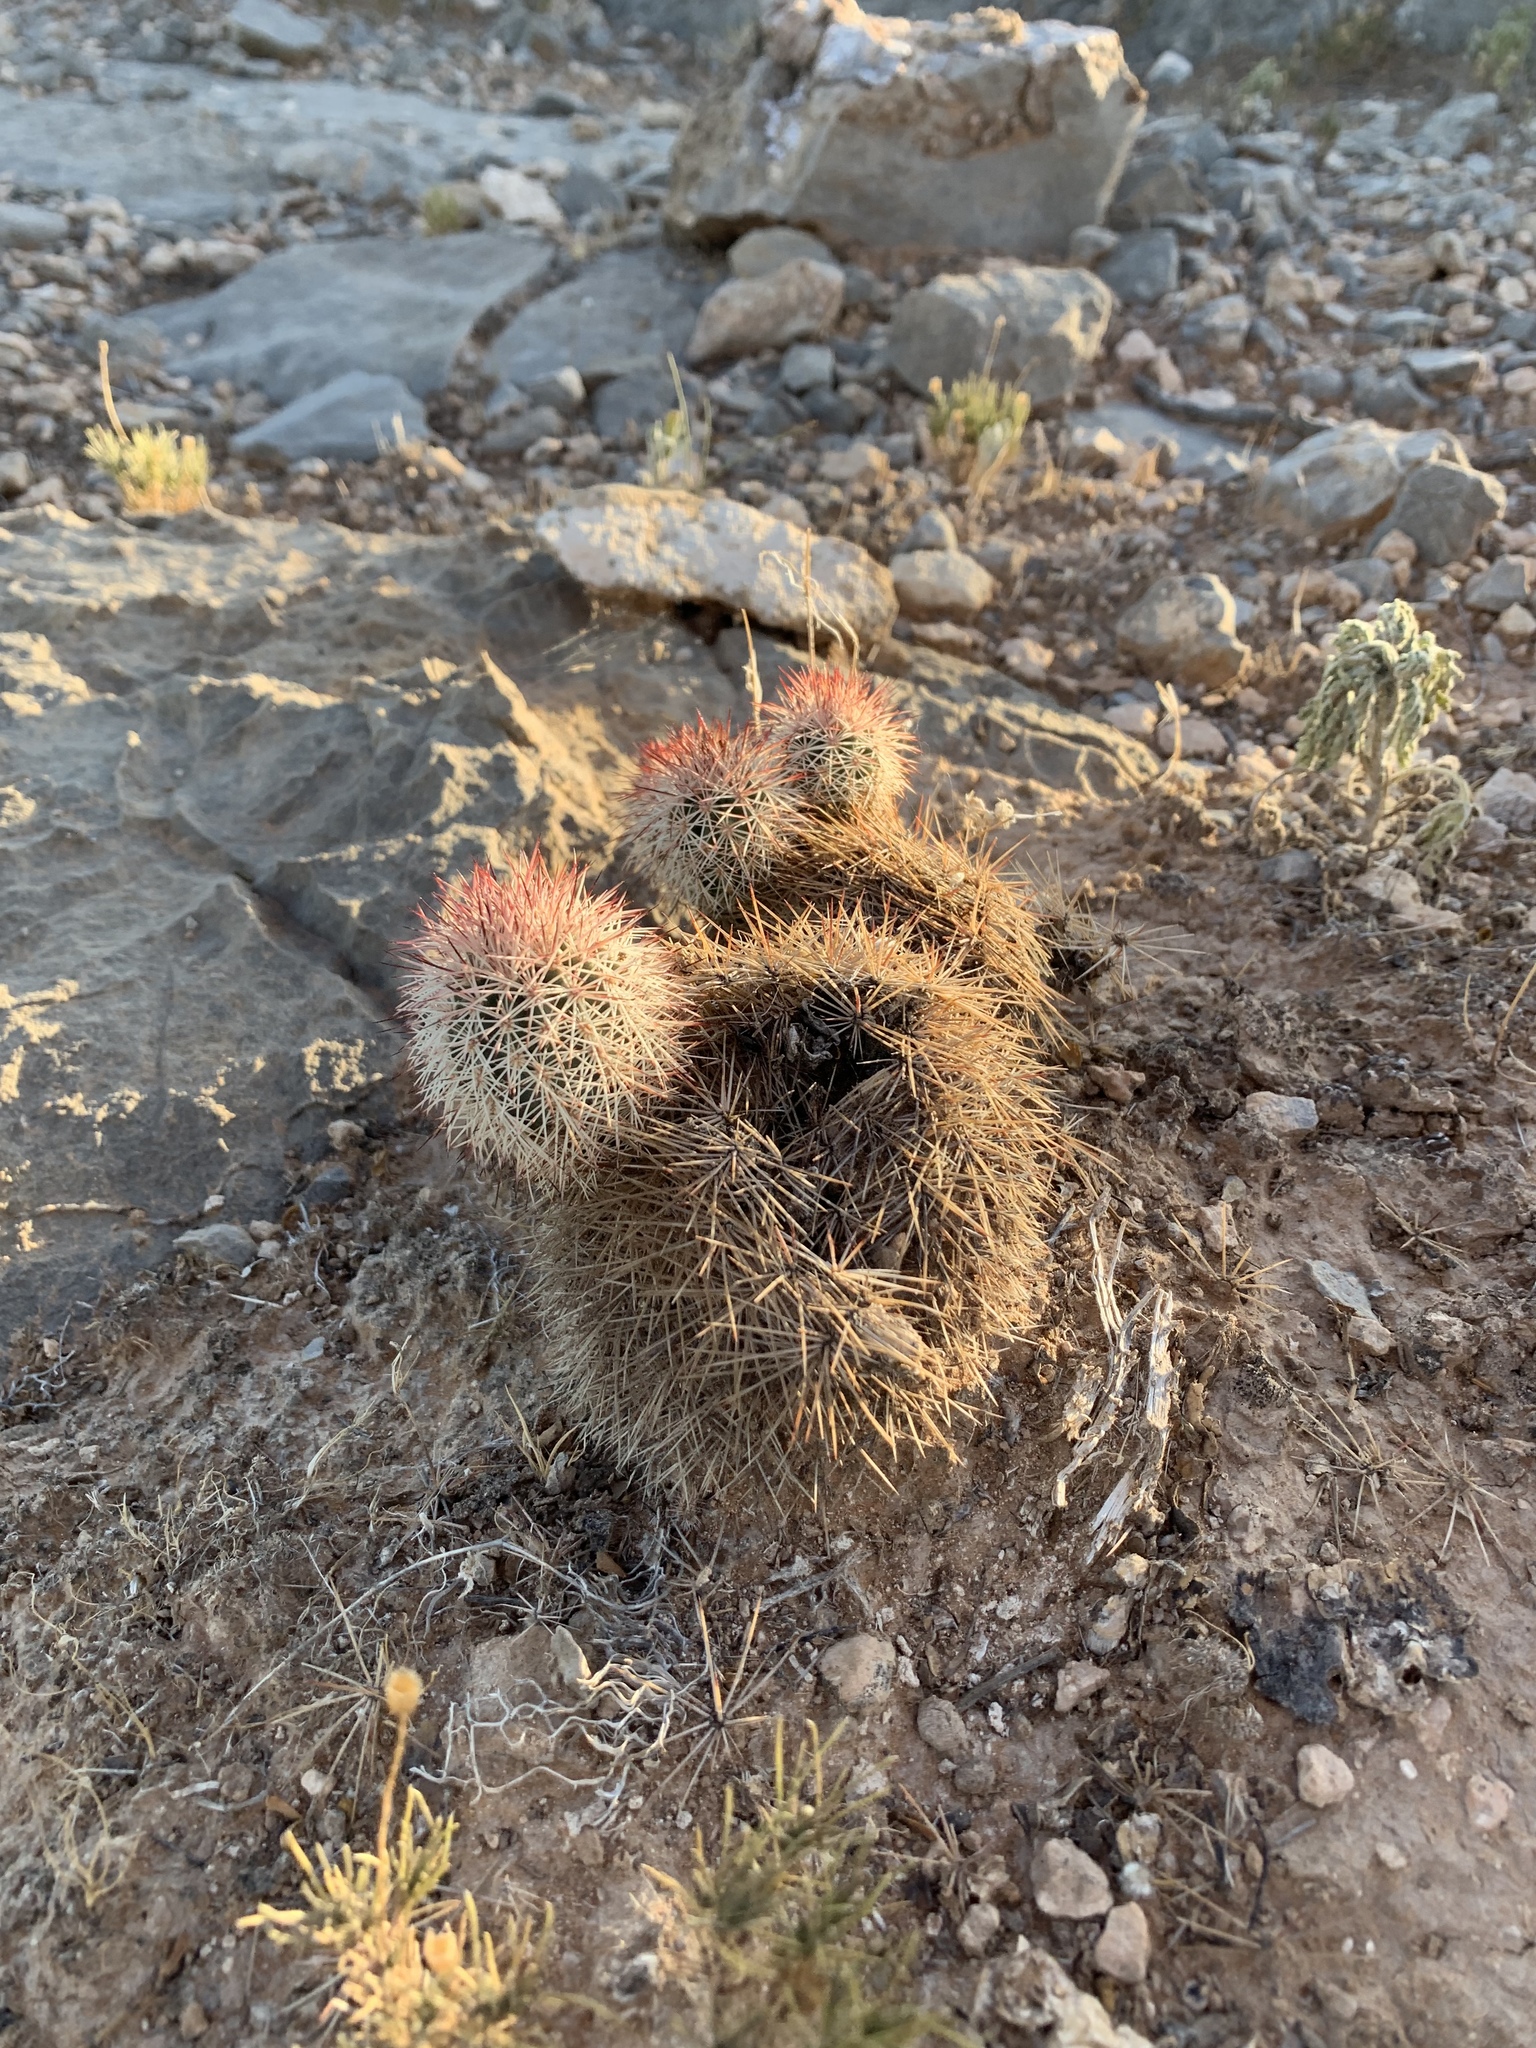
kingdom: Plantae
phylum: Tracheophyta
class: Magnoliopsida
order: Caryophyllales
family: Cactaceae
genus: Echinocereus
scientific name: Echinocereus dasyacanthus
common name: Spiny hedgehog cactus
